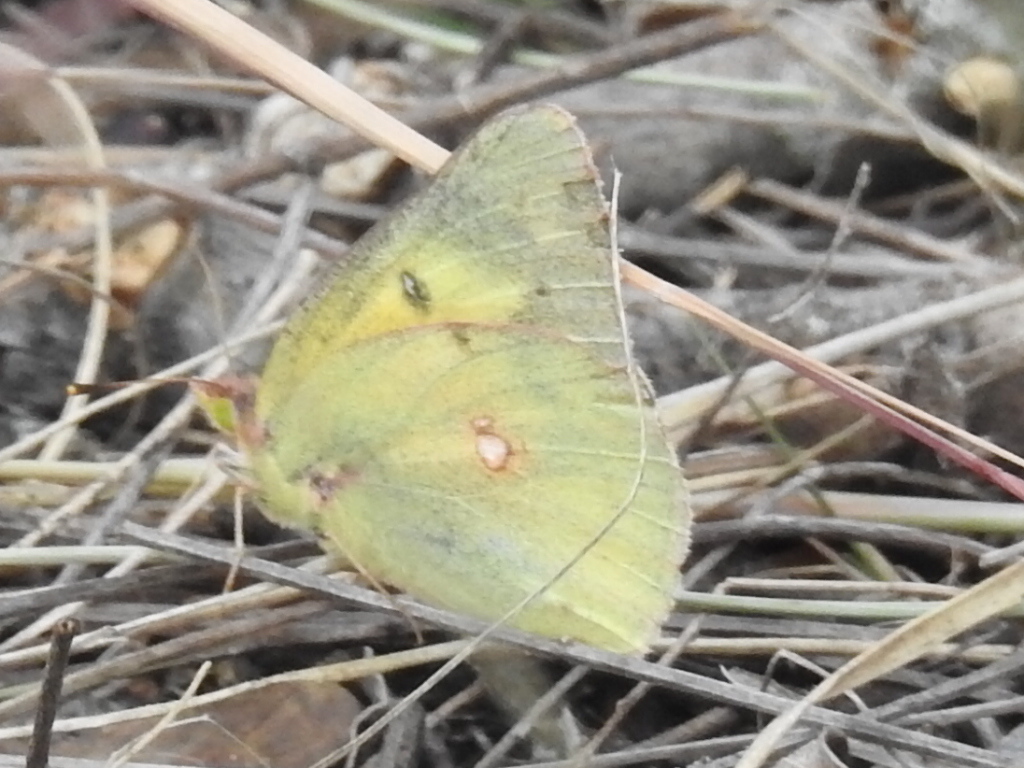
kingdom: Animalia
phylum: Arthropoda
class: Insecta
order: Lepidoptera
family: Pieridae
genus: Colias
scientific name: Colias eurytheme
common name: Alfalfa butterfly
